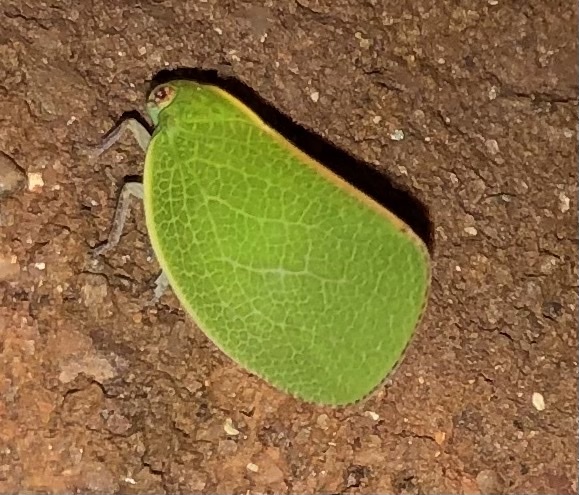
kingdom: Animalia
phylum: Arthropoda
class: Insecta
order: Hemiptera
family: Acanaloniidae
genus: Acanalonia
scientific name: Acanalonia servillei
